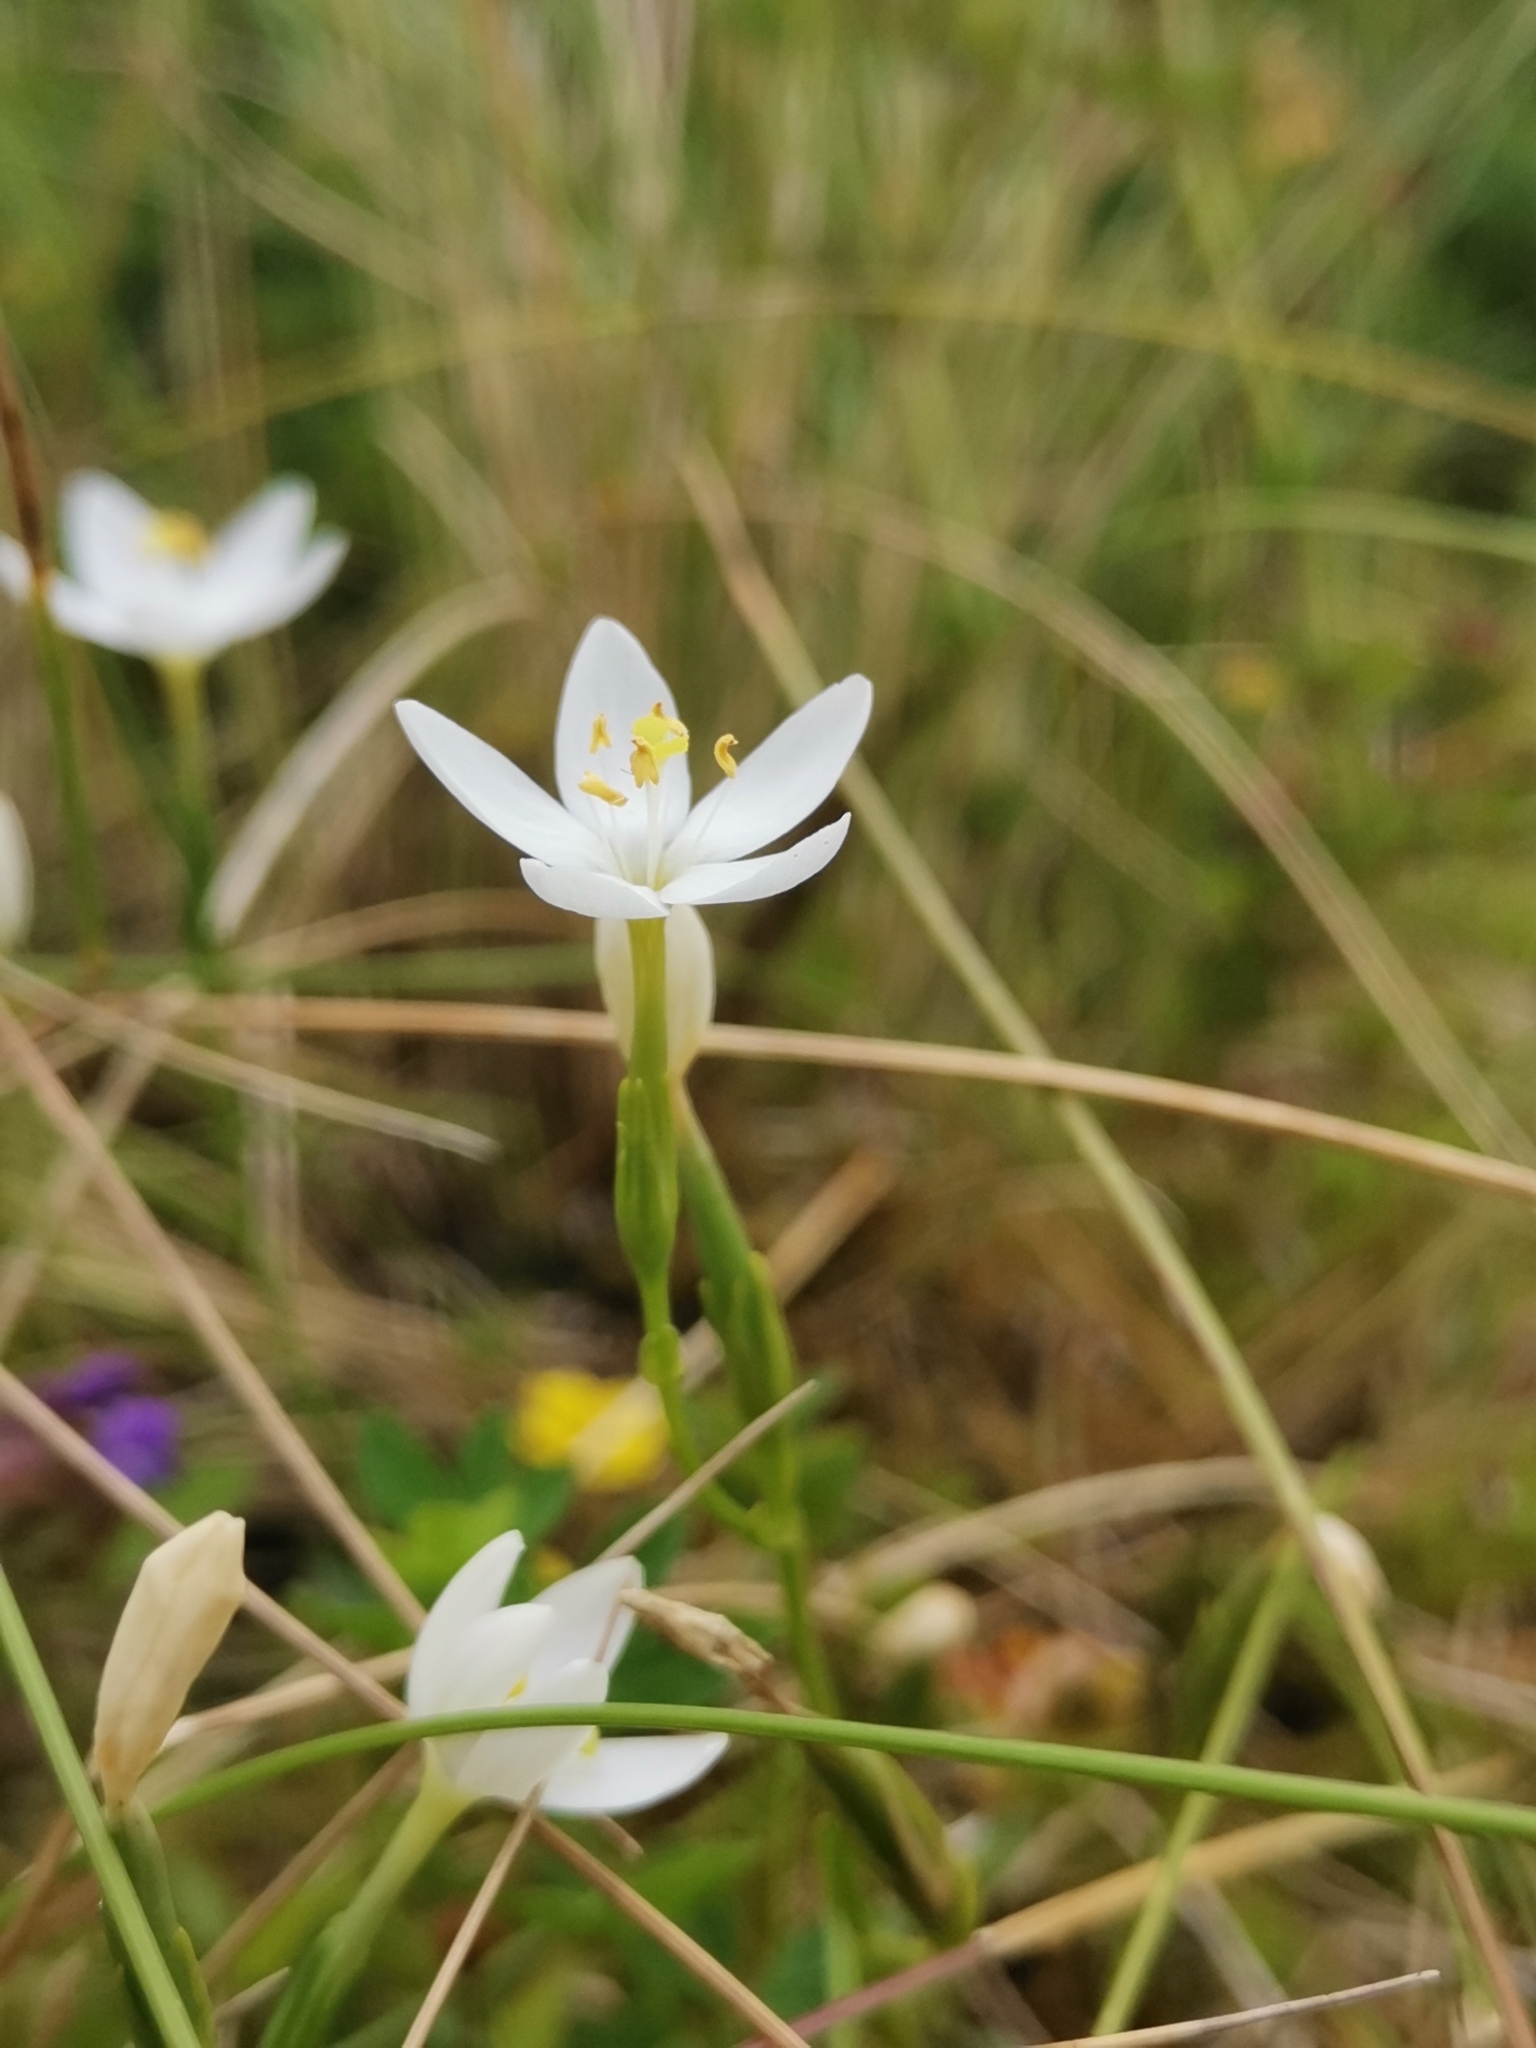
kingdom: Plantae
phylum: Tracheophyta
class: Magnoliopsida
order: Gentianales
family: Gentianaceae
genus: Centaurium
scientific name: Centaurium scilloides
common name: Perennial centaury
